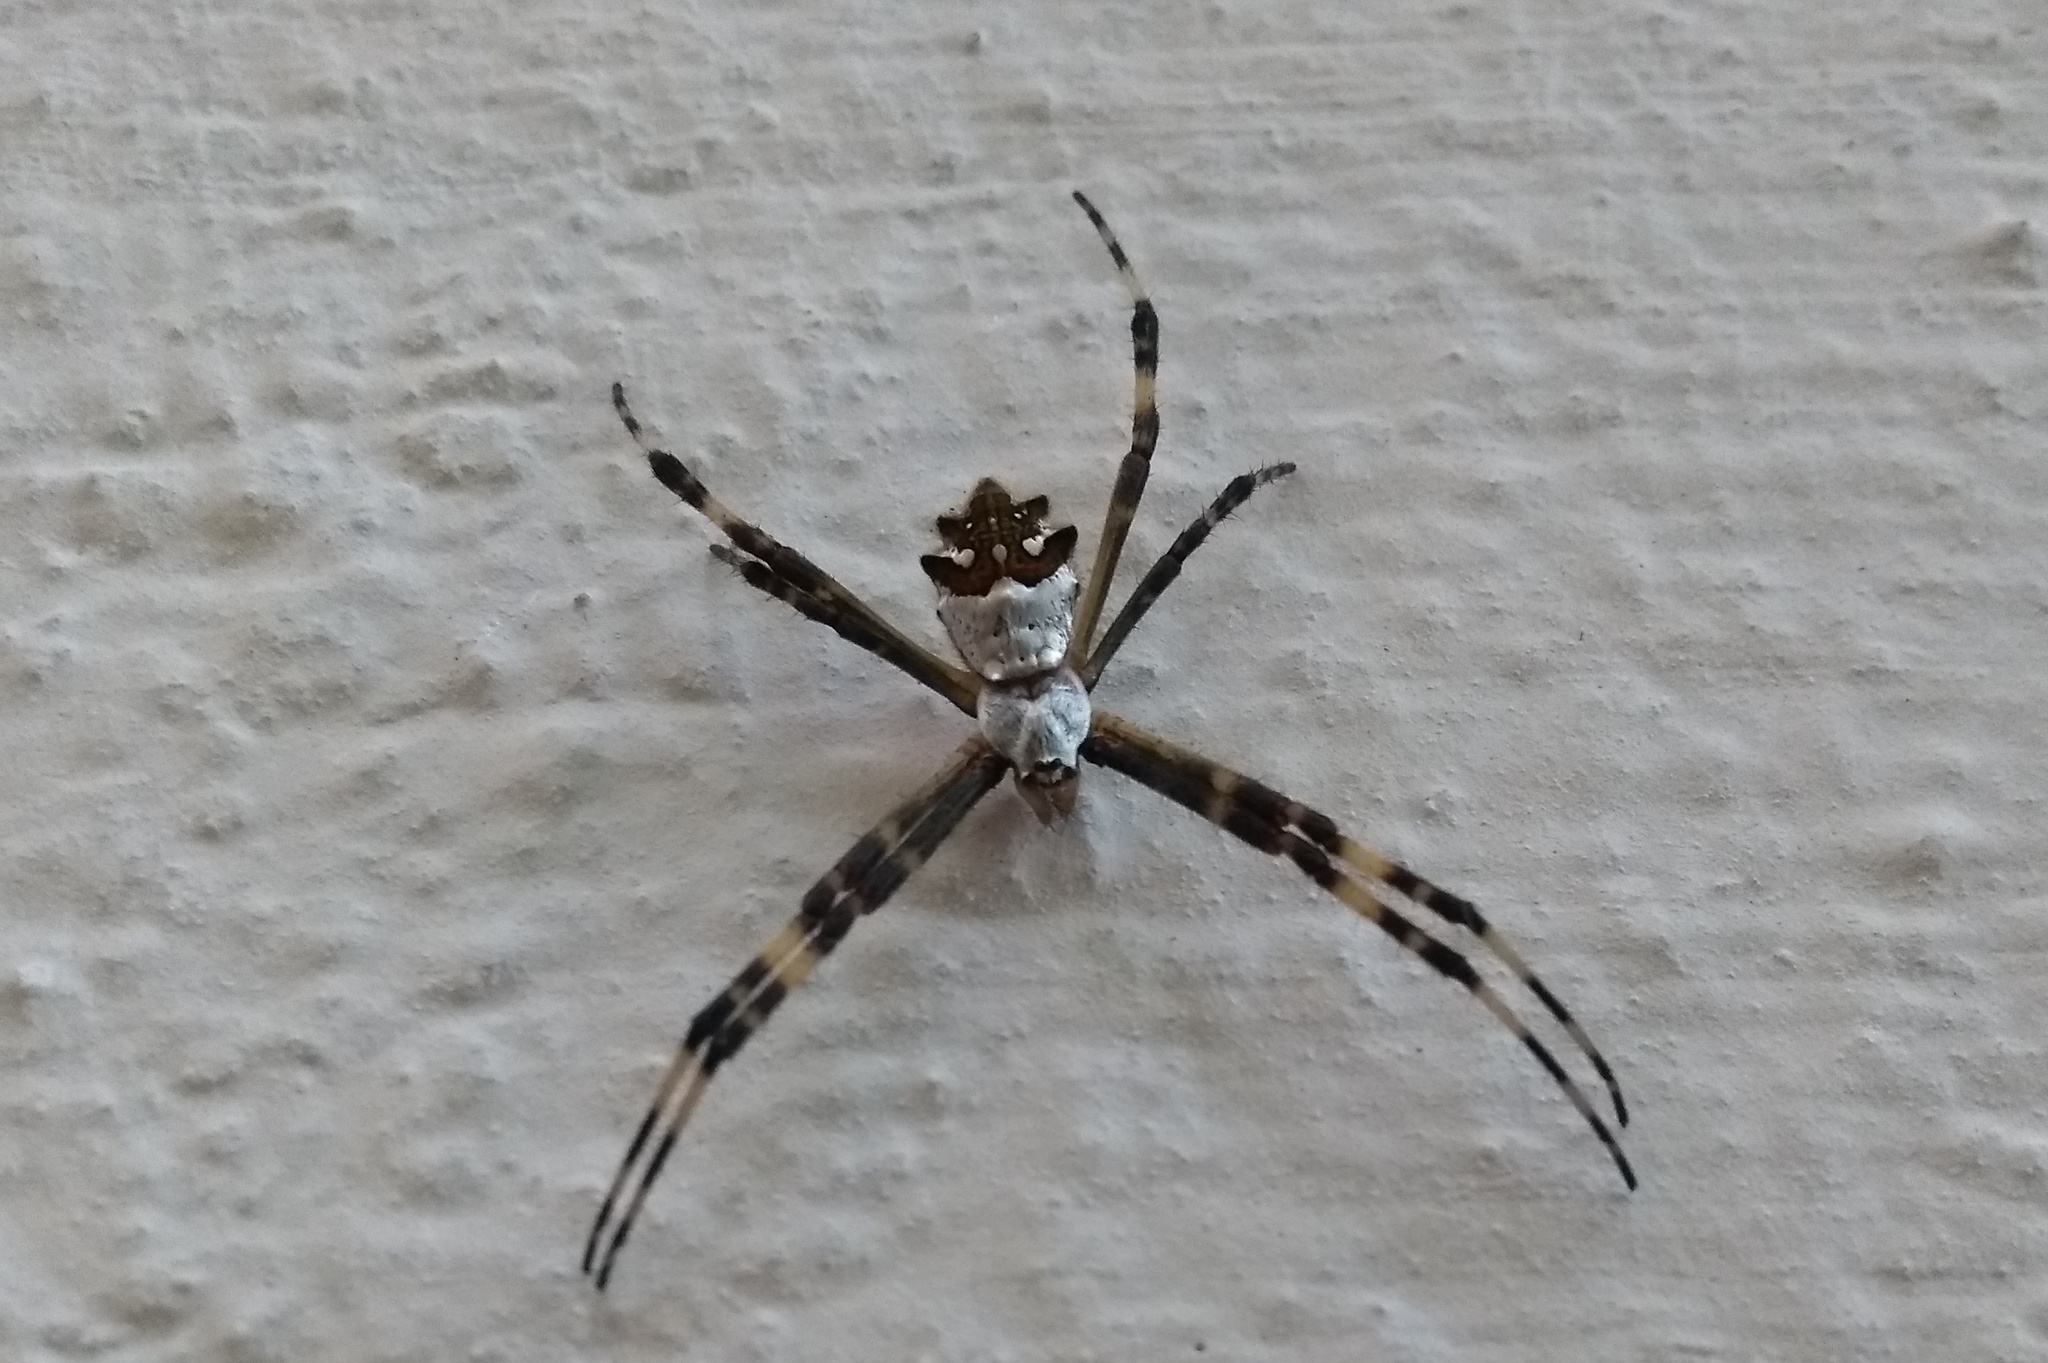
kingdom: Animalia
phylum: Arthropoda
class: Arachnida
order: Araneae
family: Araneidae
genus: Argiope
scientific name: Argiope argentata
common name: Orb weavers
